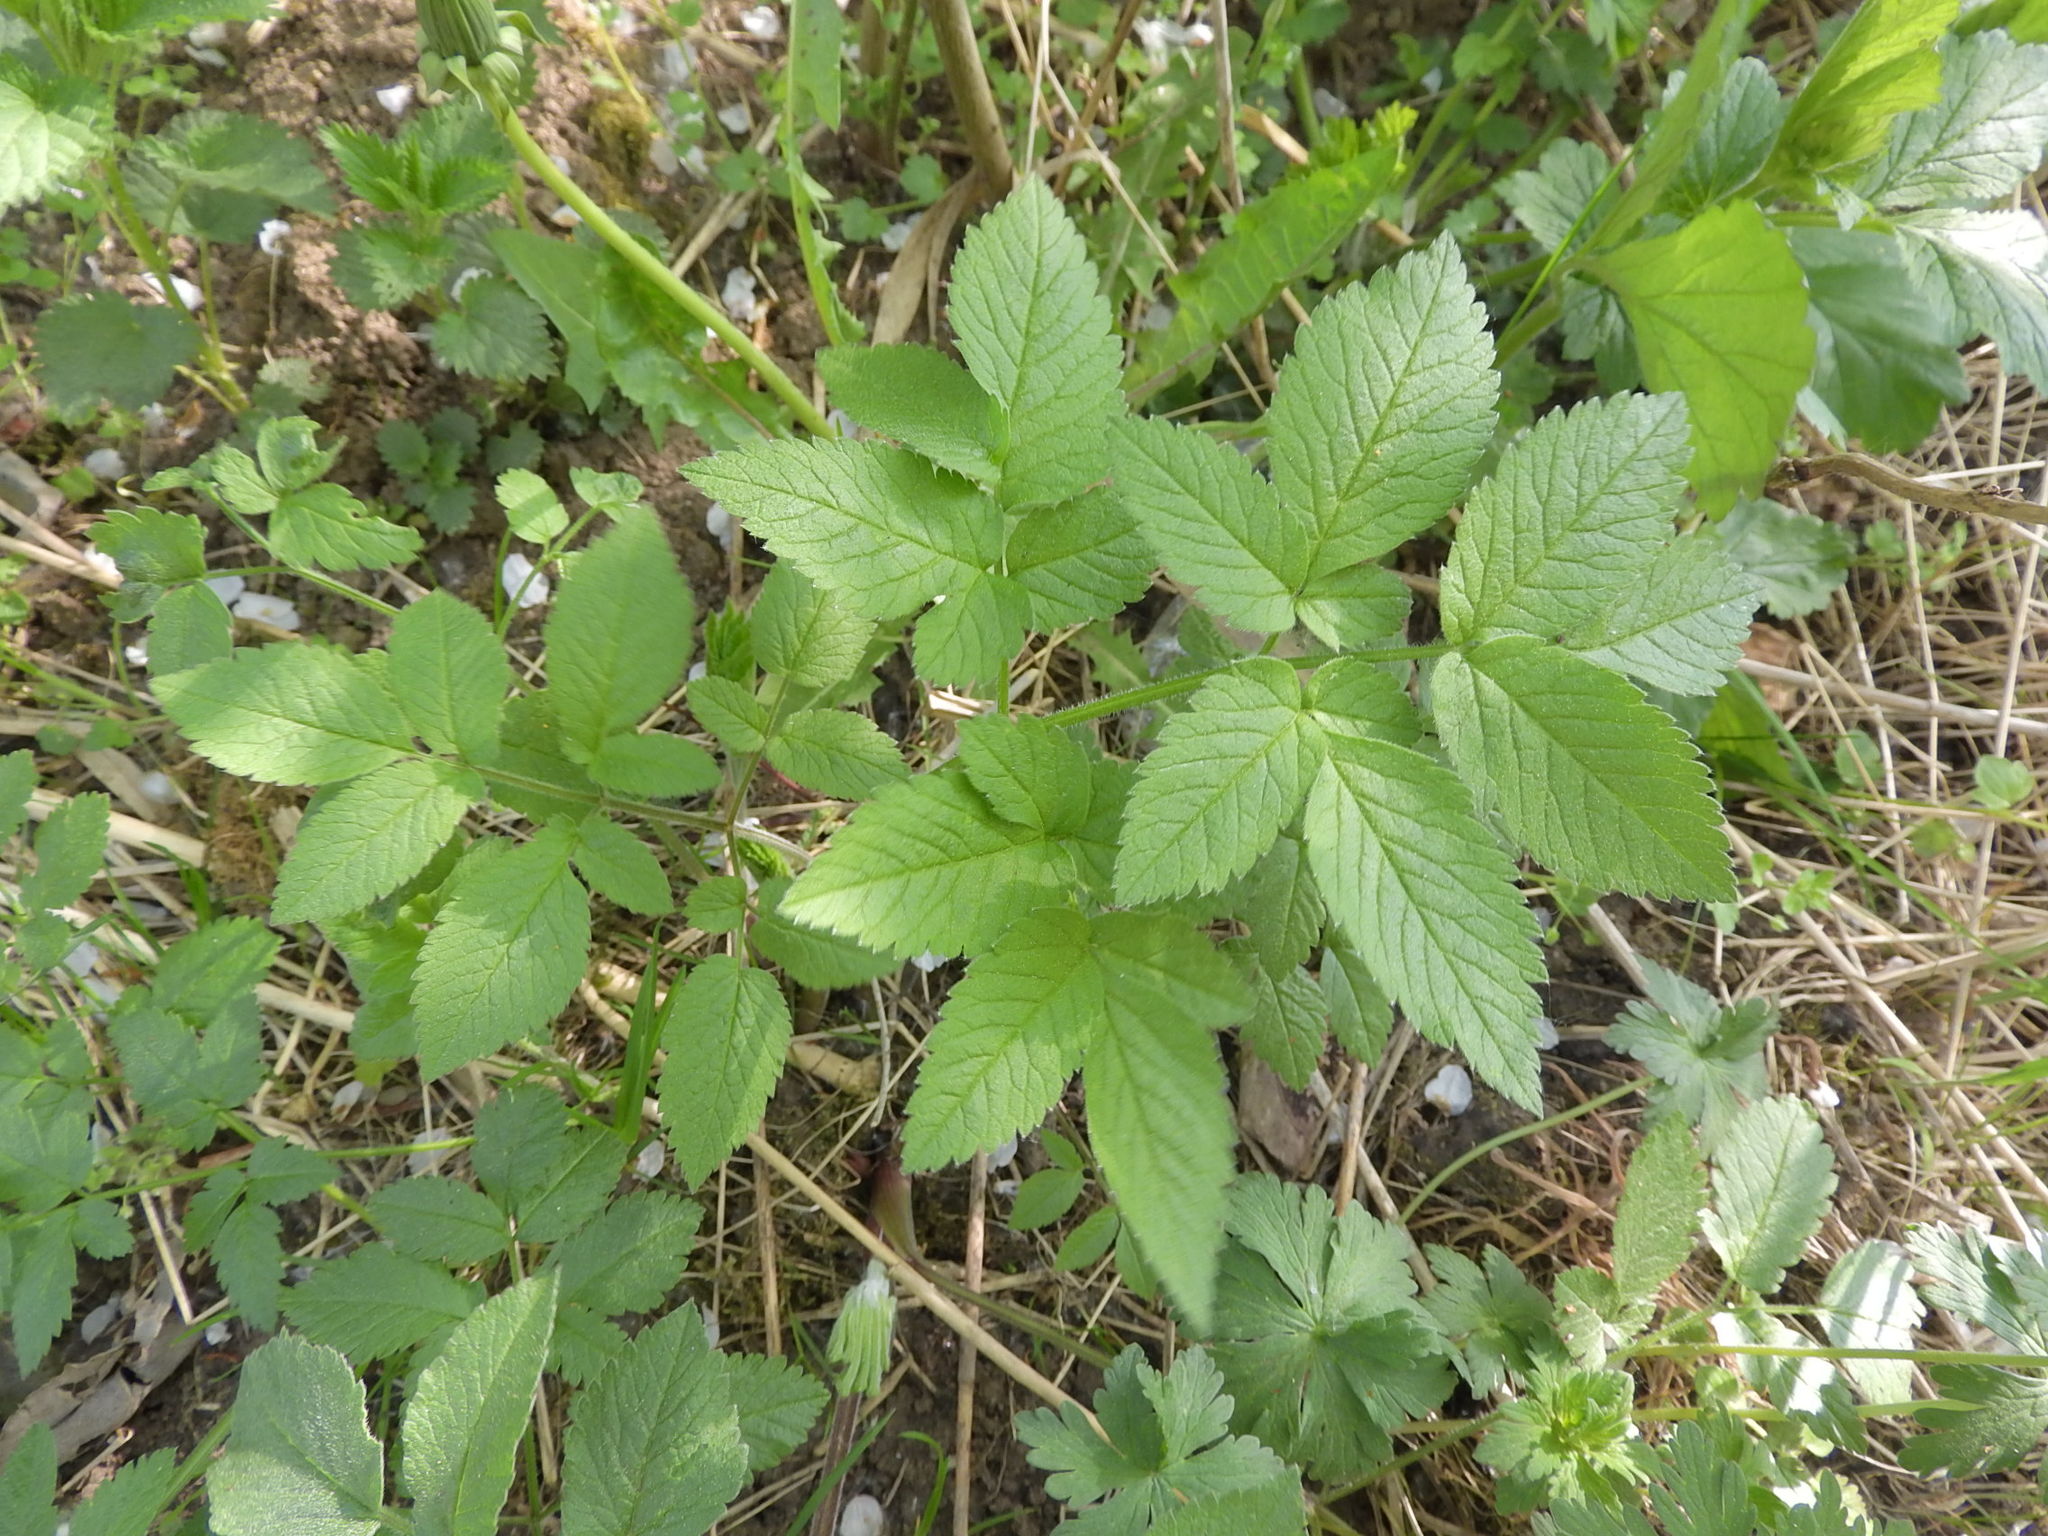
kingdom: Plantae
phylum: Tracheophyta
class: Magnoliopsida
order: Apiales
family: Apiaceae
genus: Chaerophyllum
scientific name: Chaerophyllum aromaticum
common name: Broadleaf chervil
